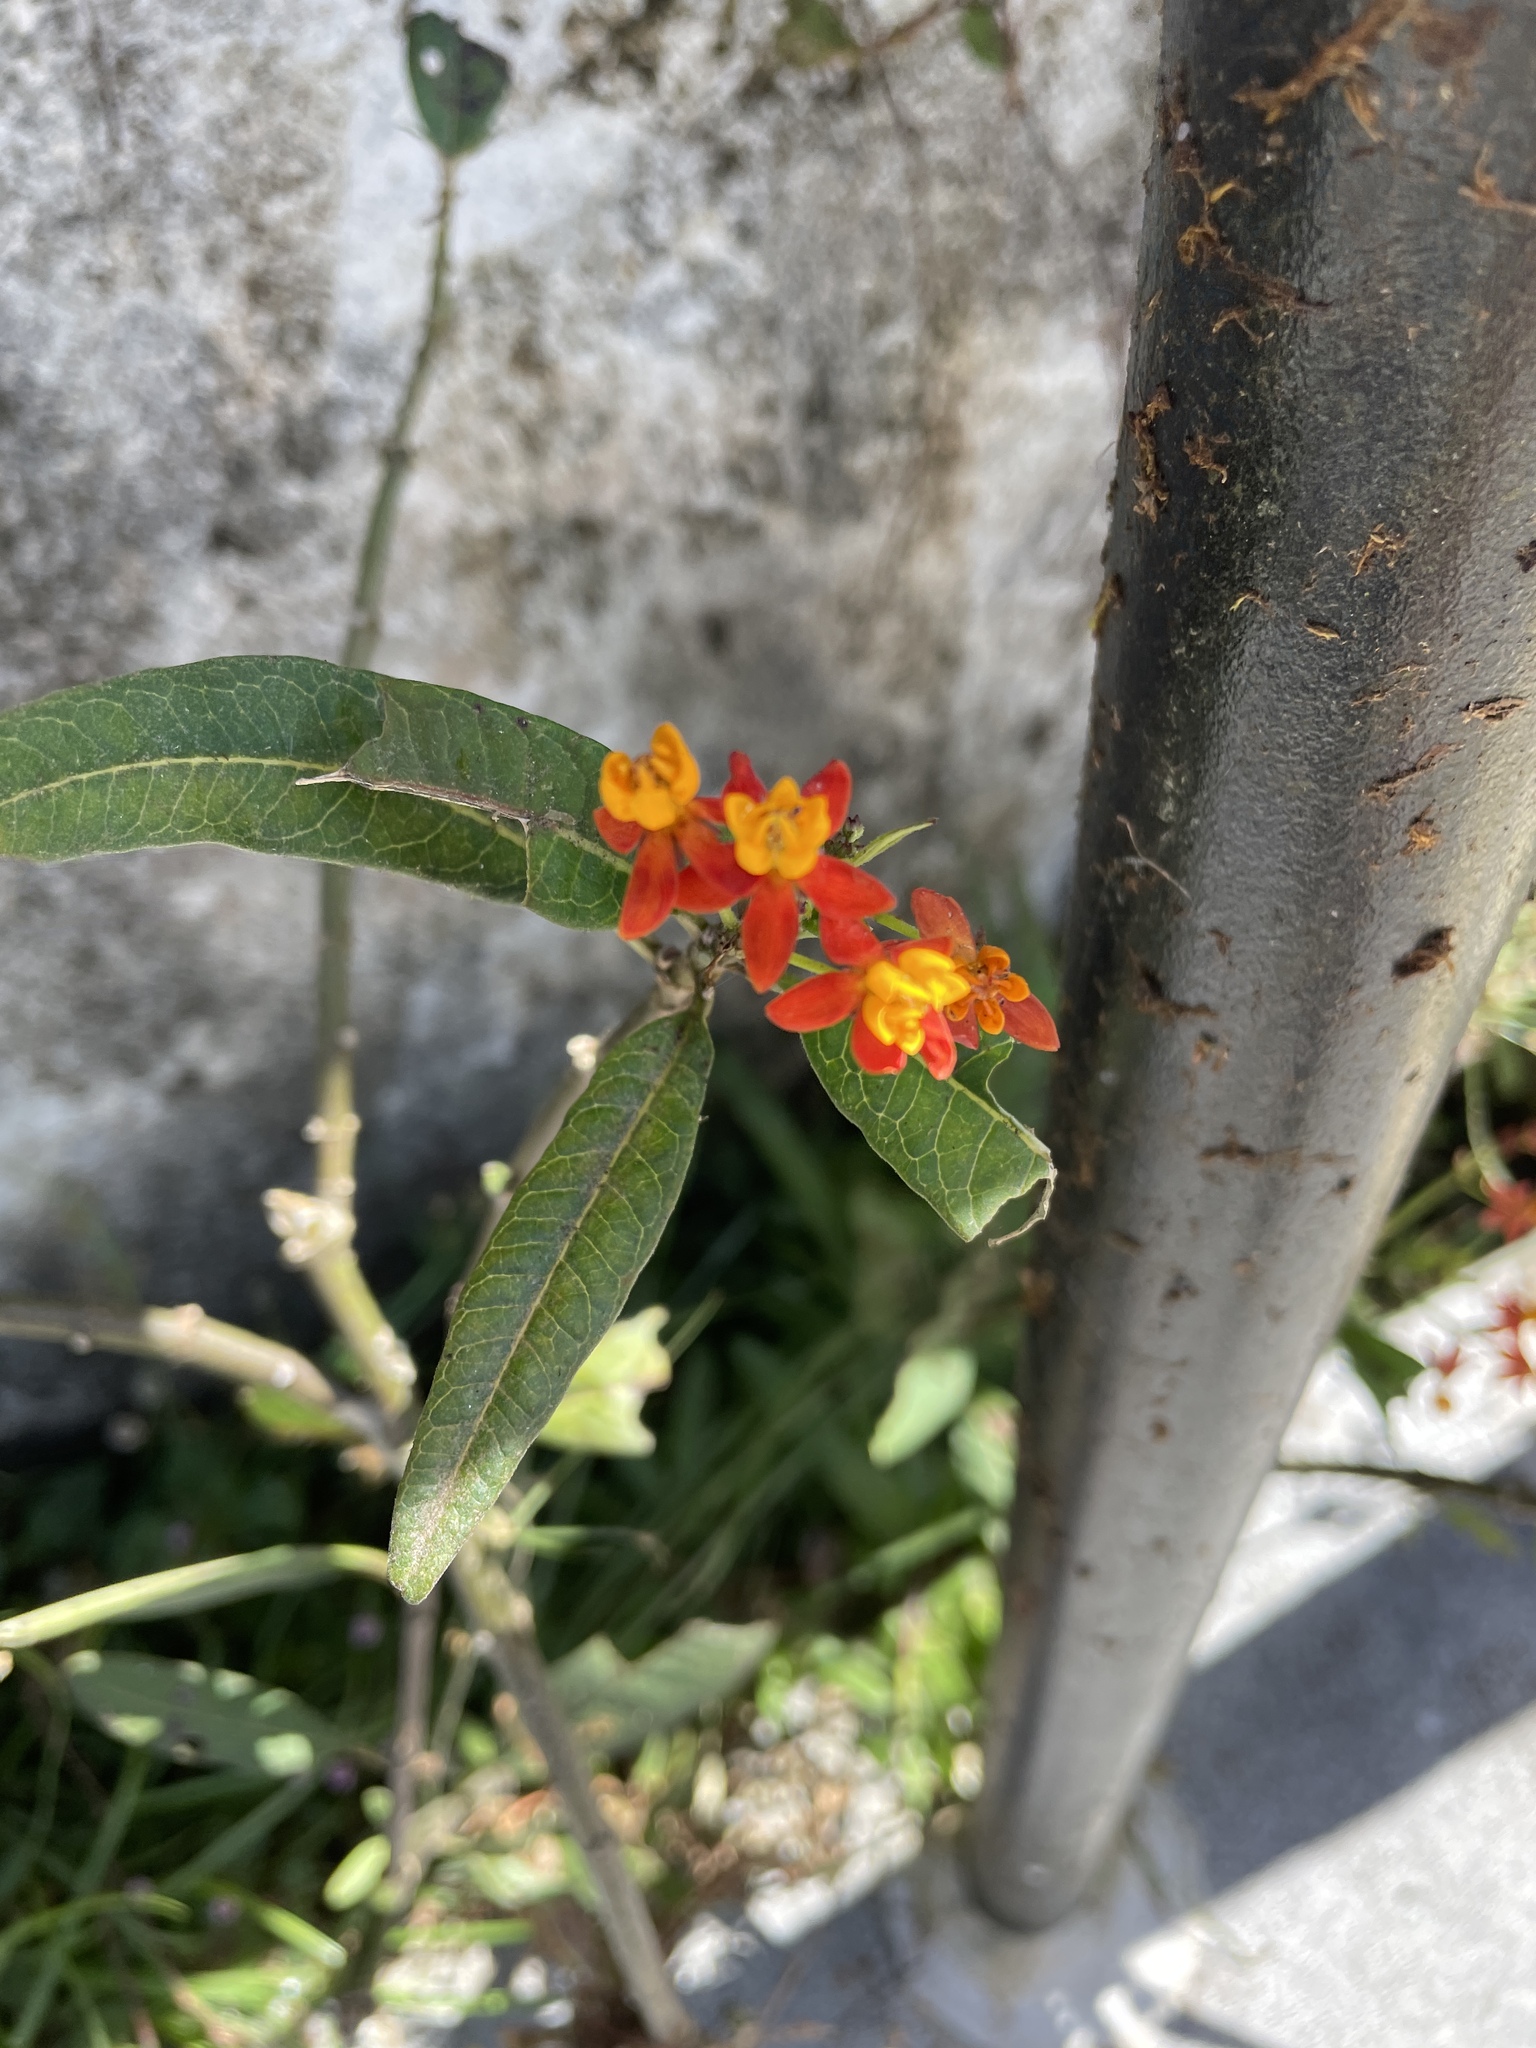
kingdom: Plantae
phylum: Tracheophyta
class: Magnoliopsida
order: Gentianales
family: Apocynaceae
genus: Asclepias
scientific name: Asclepias curassavica
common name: Bloodflower
